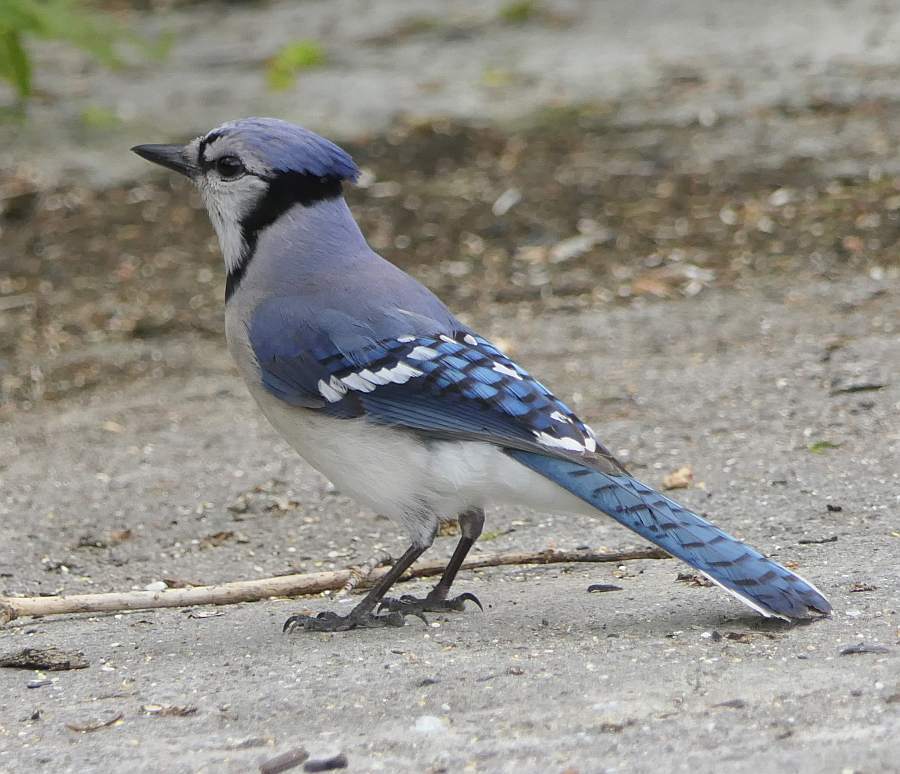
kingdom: Animalia
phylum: Chordata
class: Aves
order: Passeriformes
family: Corvidae
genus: Cyanocitta
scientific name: Cyanocitta cristata
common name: Blue jay
